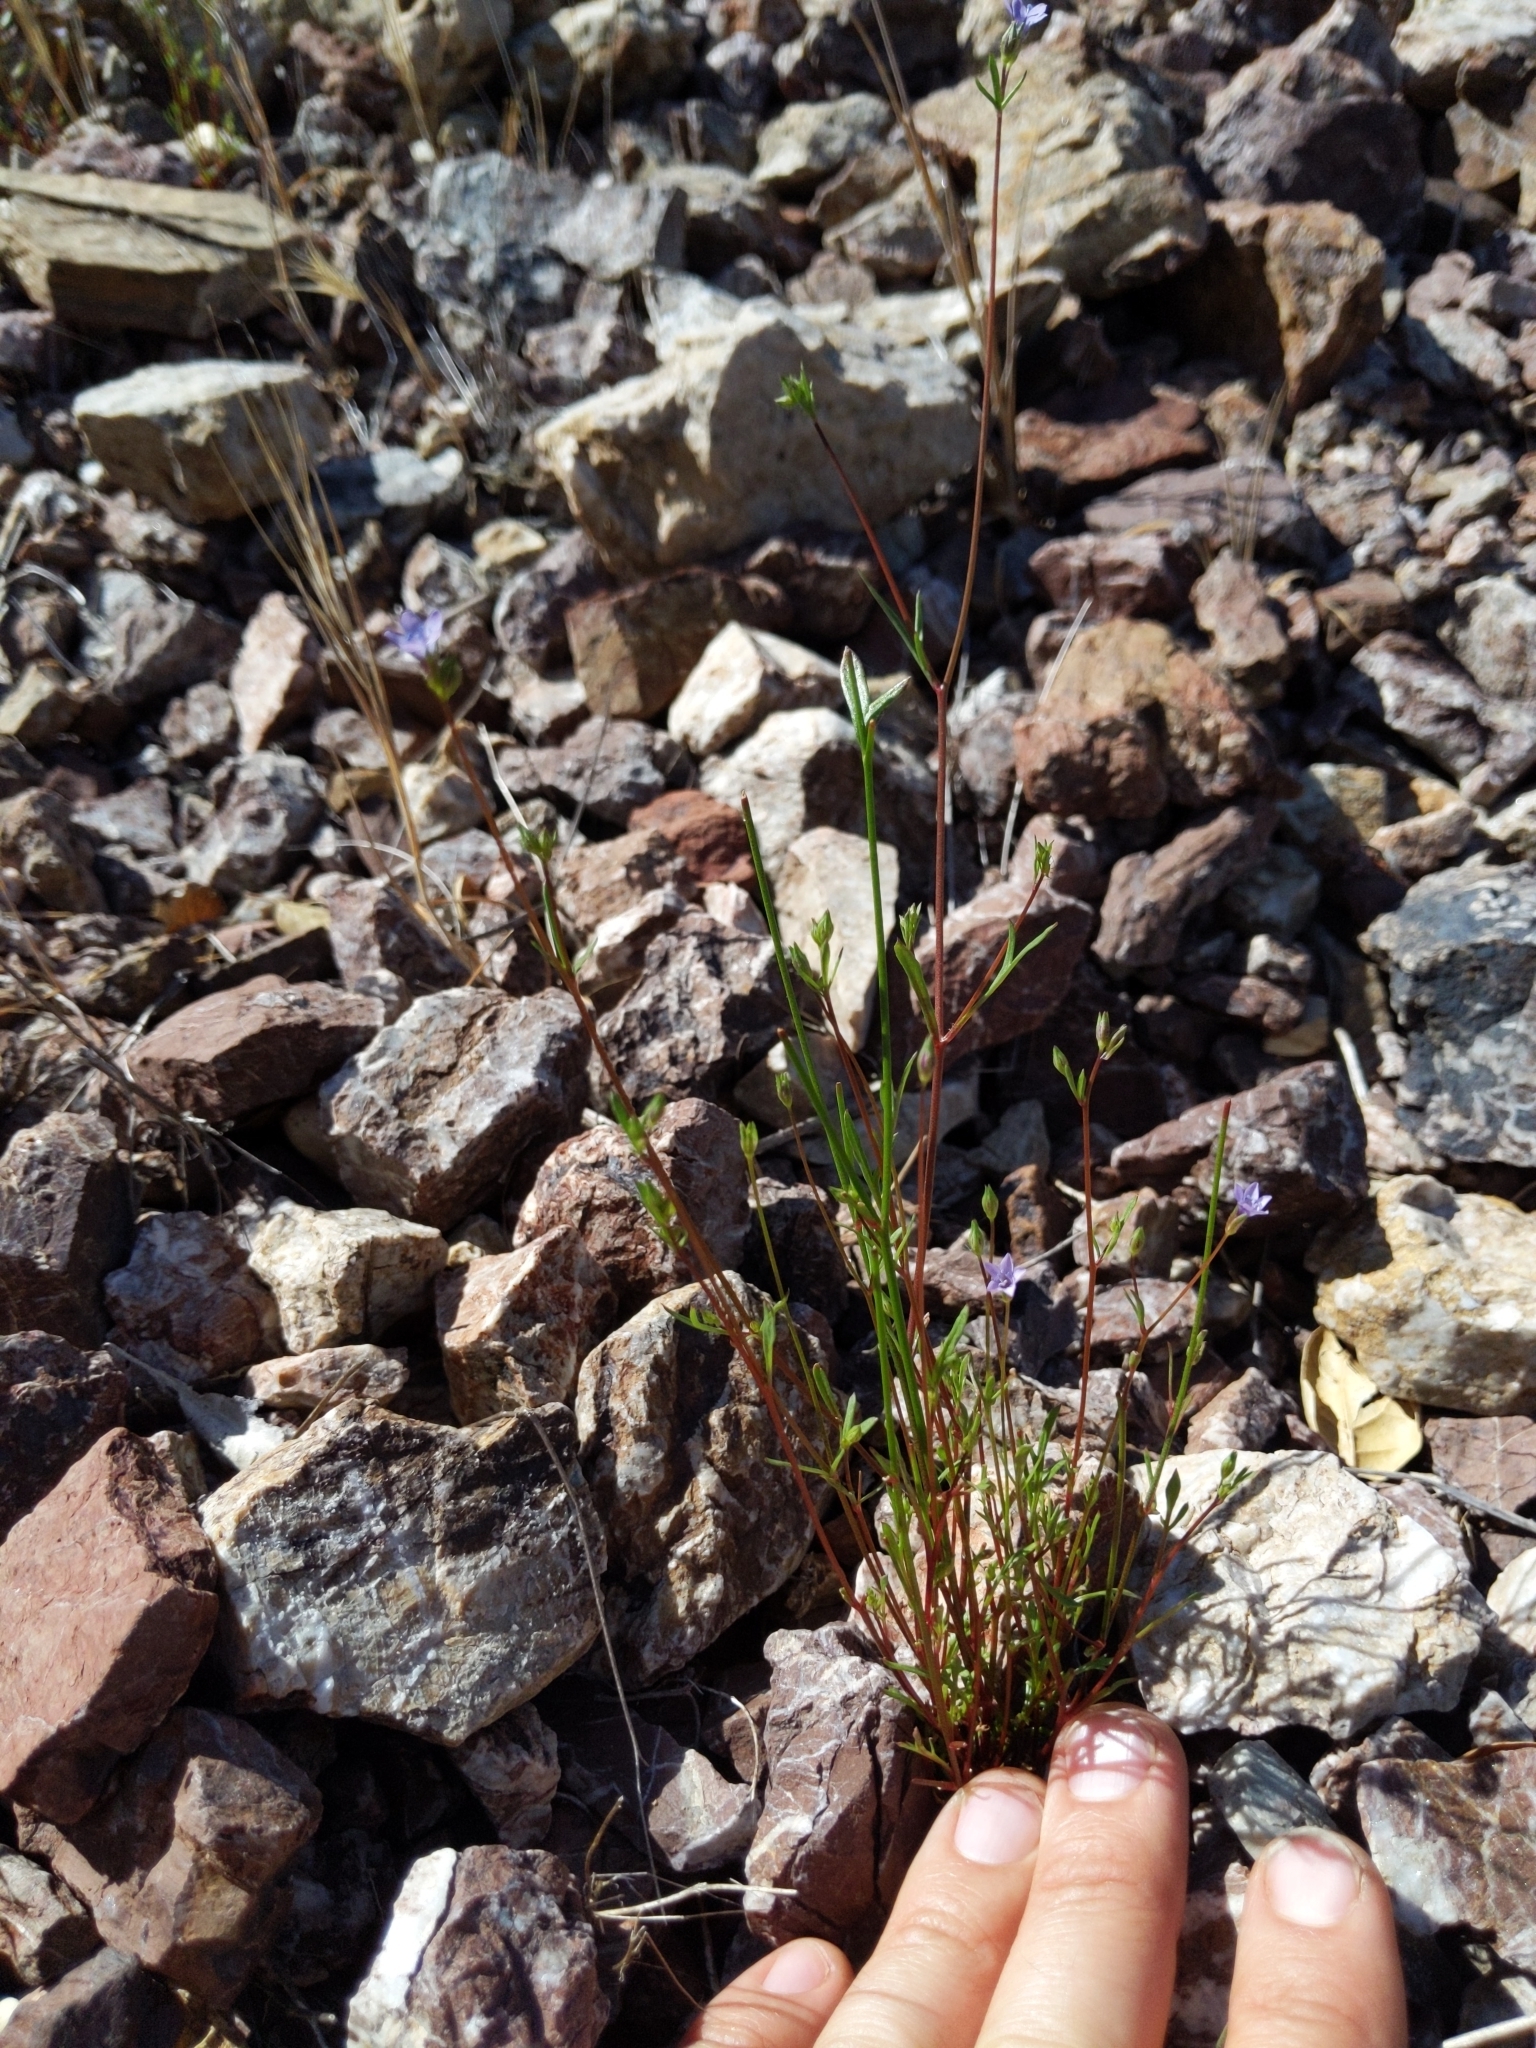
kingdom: Plantae
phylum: Tracheophyta
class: Magnoliopsida
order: Ericales
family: Polemoniaceae
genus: Gilia
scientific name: Gilia achilleifolia
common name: California gily-flower
